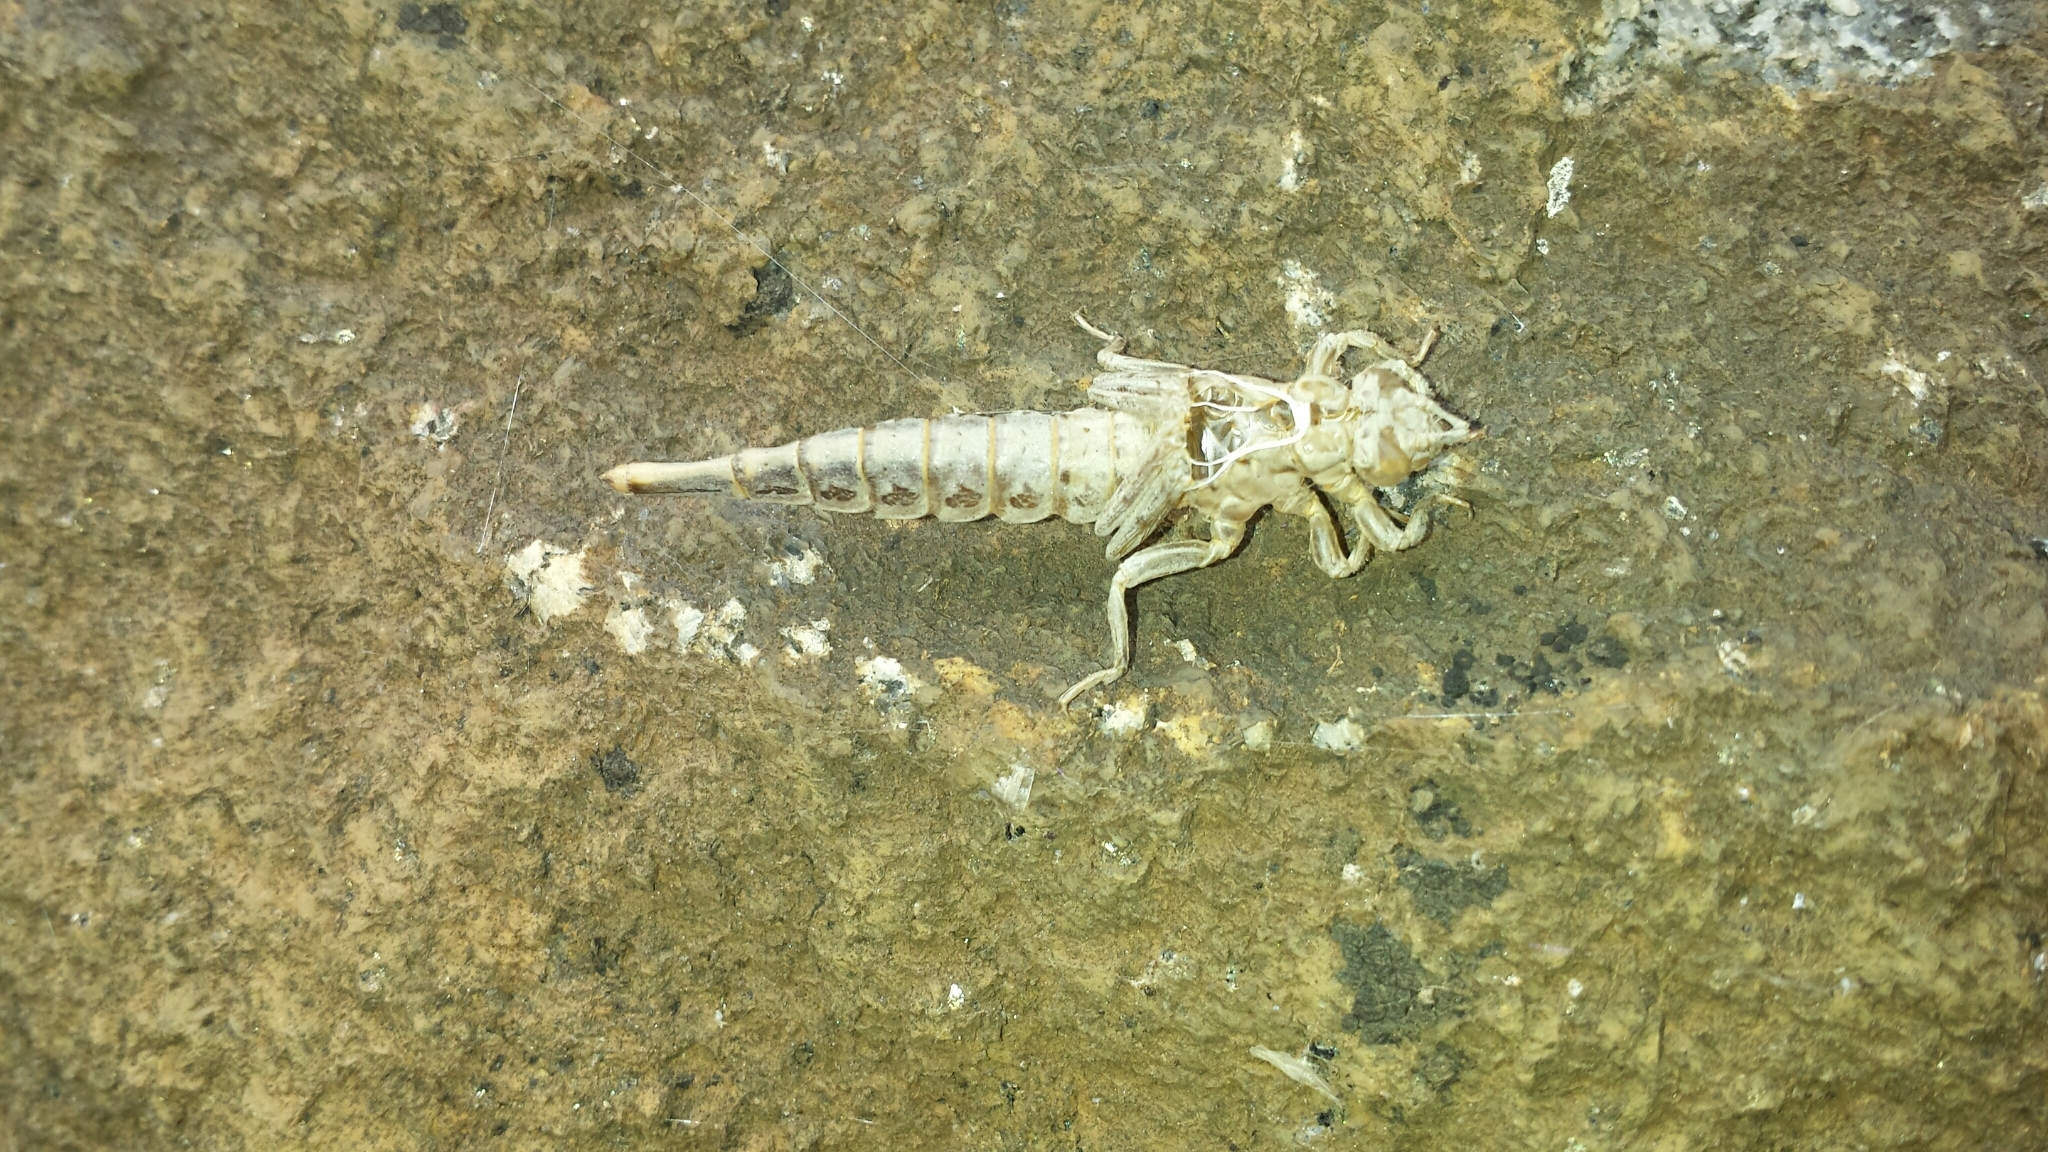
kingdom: Animalia
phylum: Arthropoda
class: Insecta
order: Odonata
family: Gomphidae
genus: Stylurus
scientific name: Stylurus spiniceps
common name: Arrow clubtail
